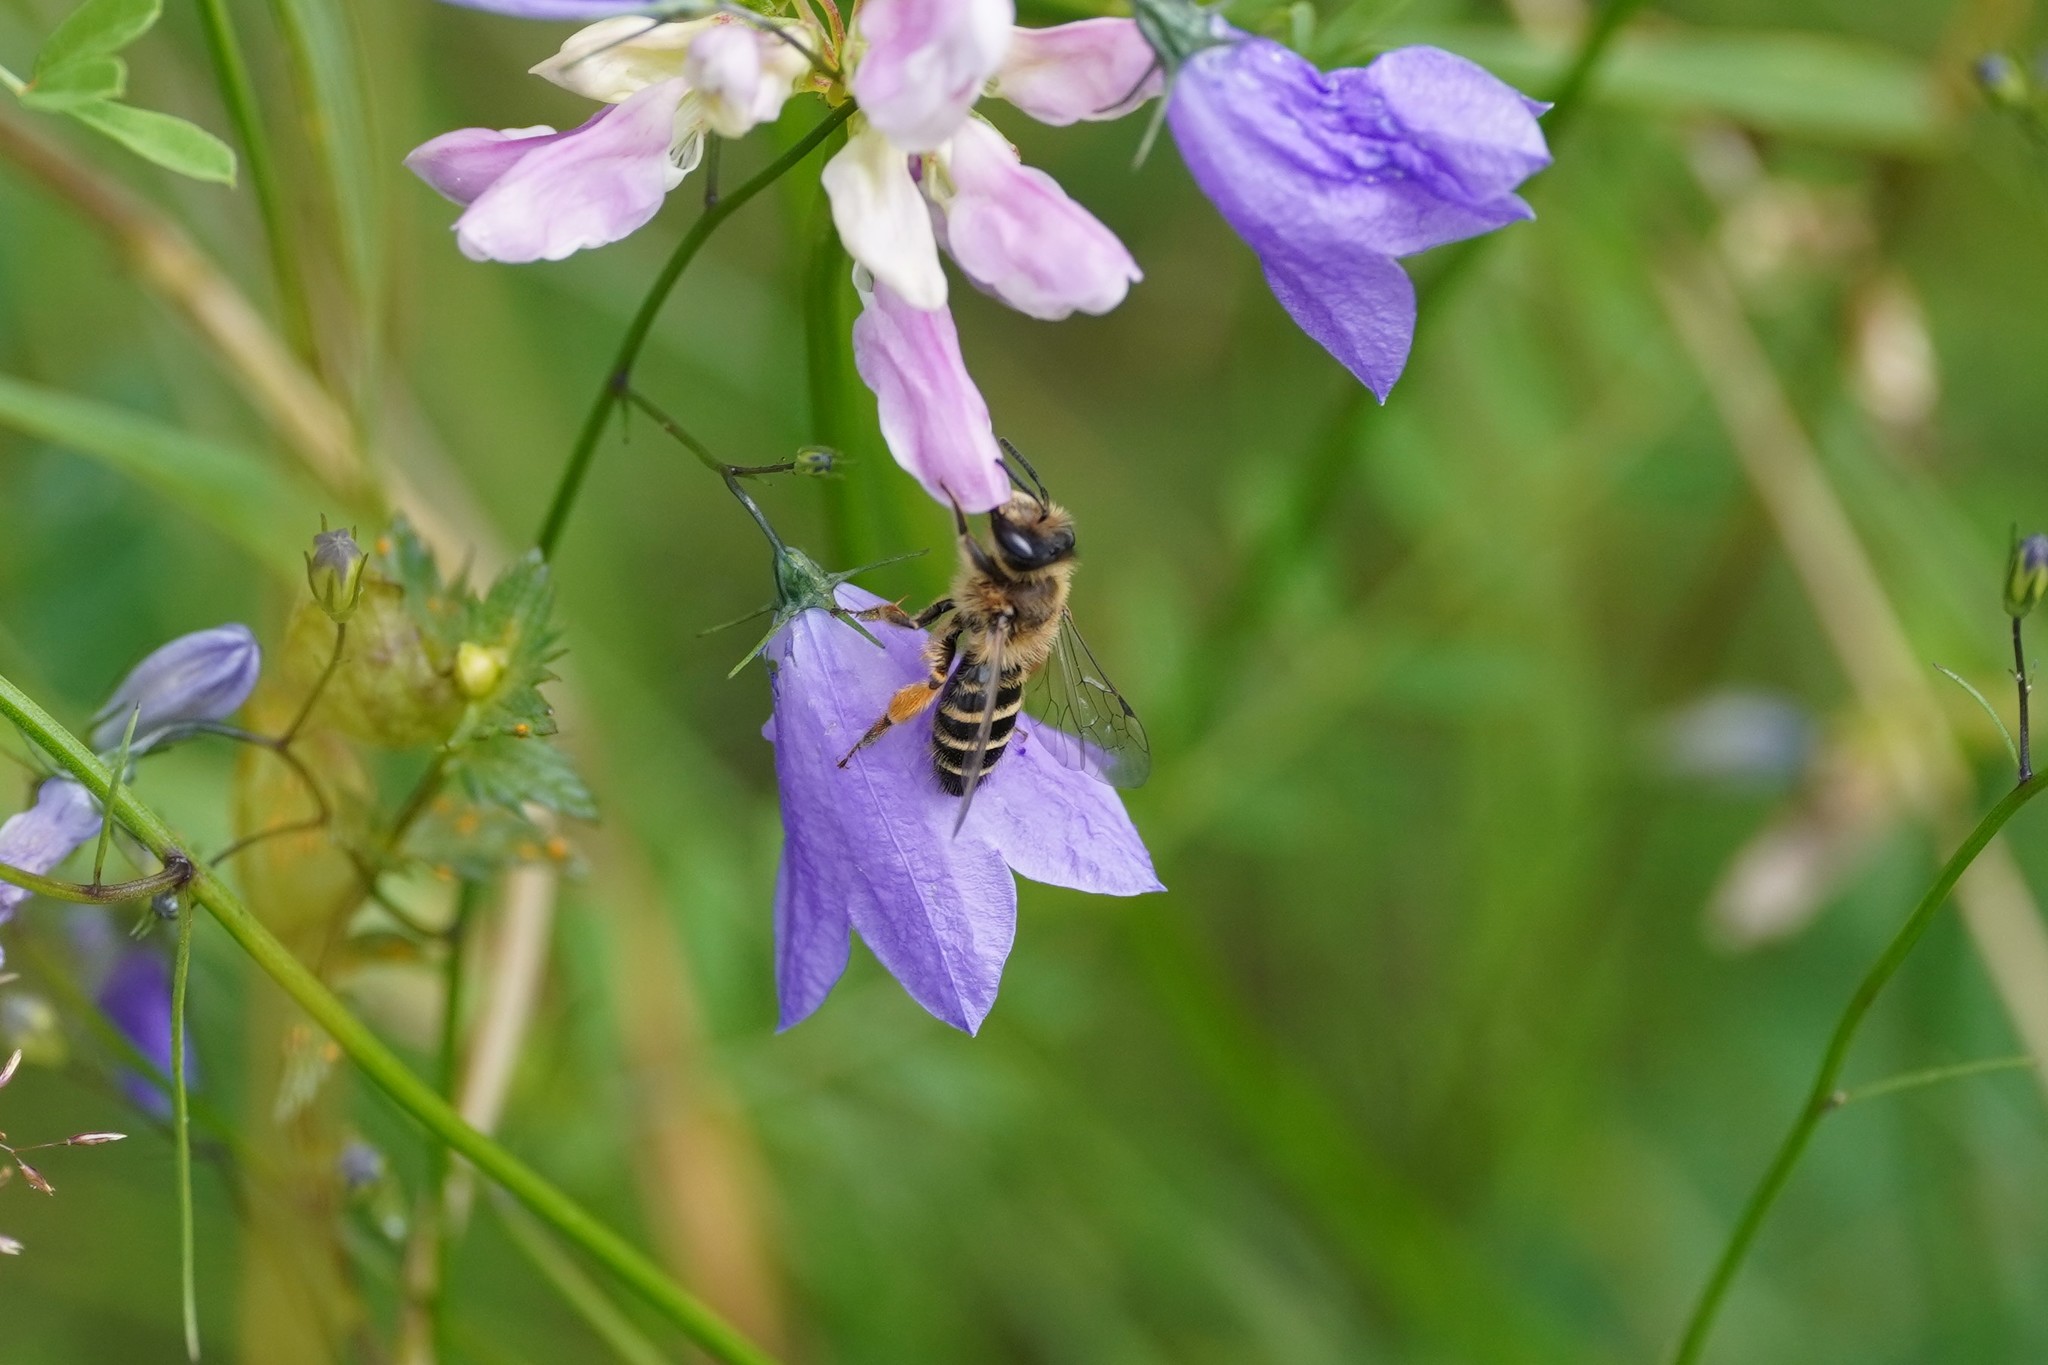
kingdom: Animalia
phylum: Arthropoda
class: Insecta
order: Hymenoptera
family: Andrenidae
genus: Andrena
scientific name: Andrena flavipes
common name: Yellow-legged mining bee
